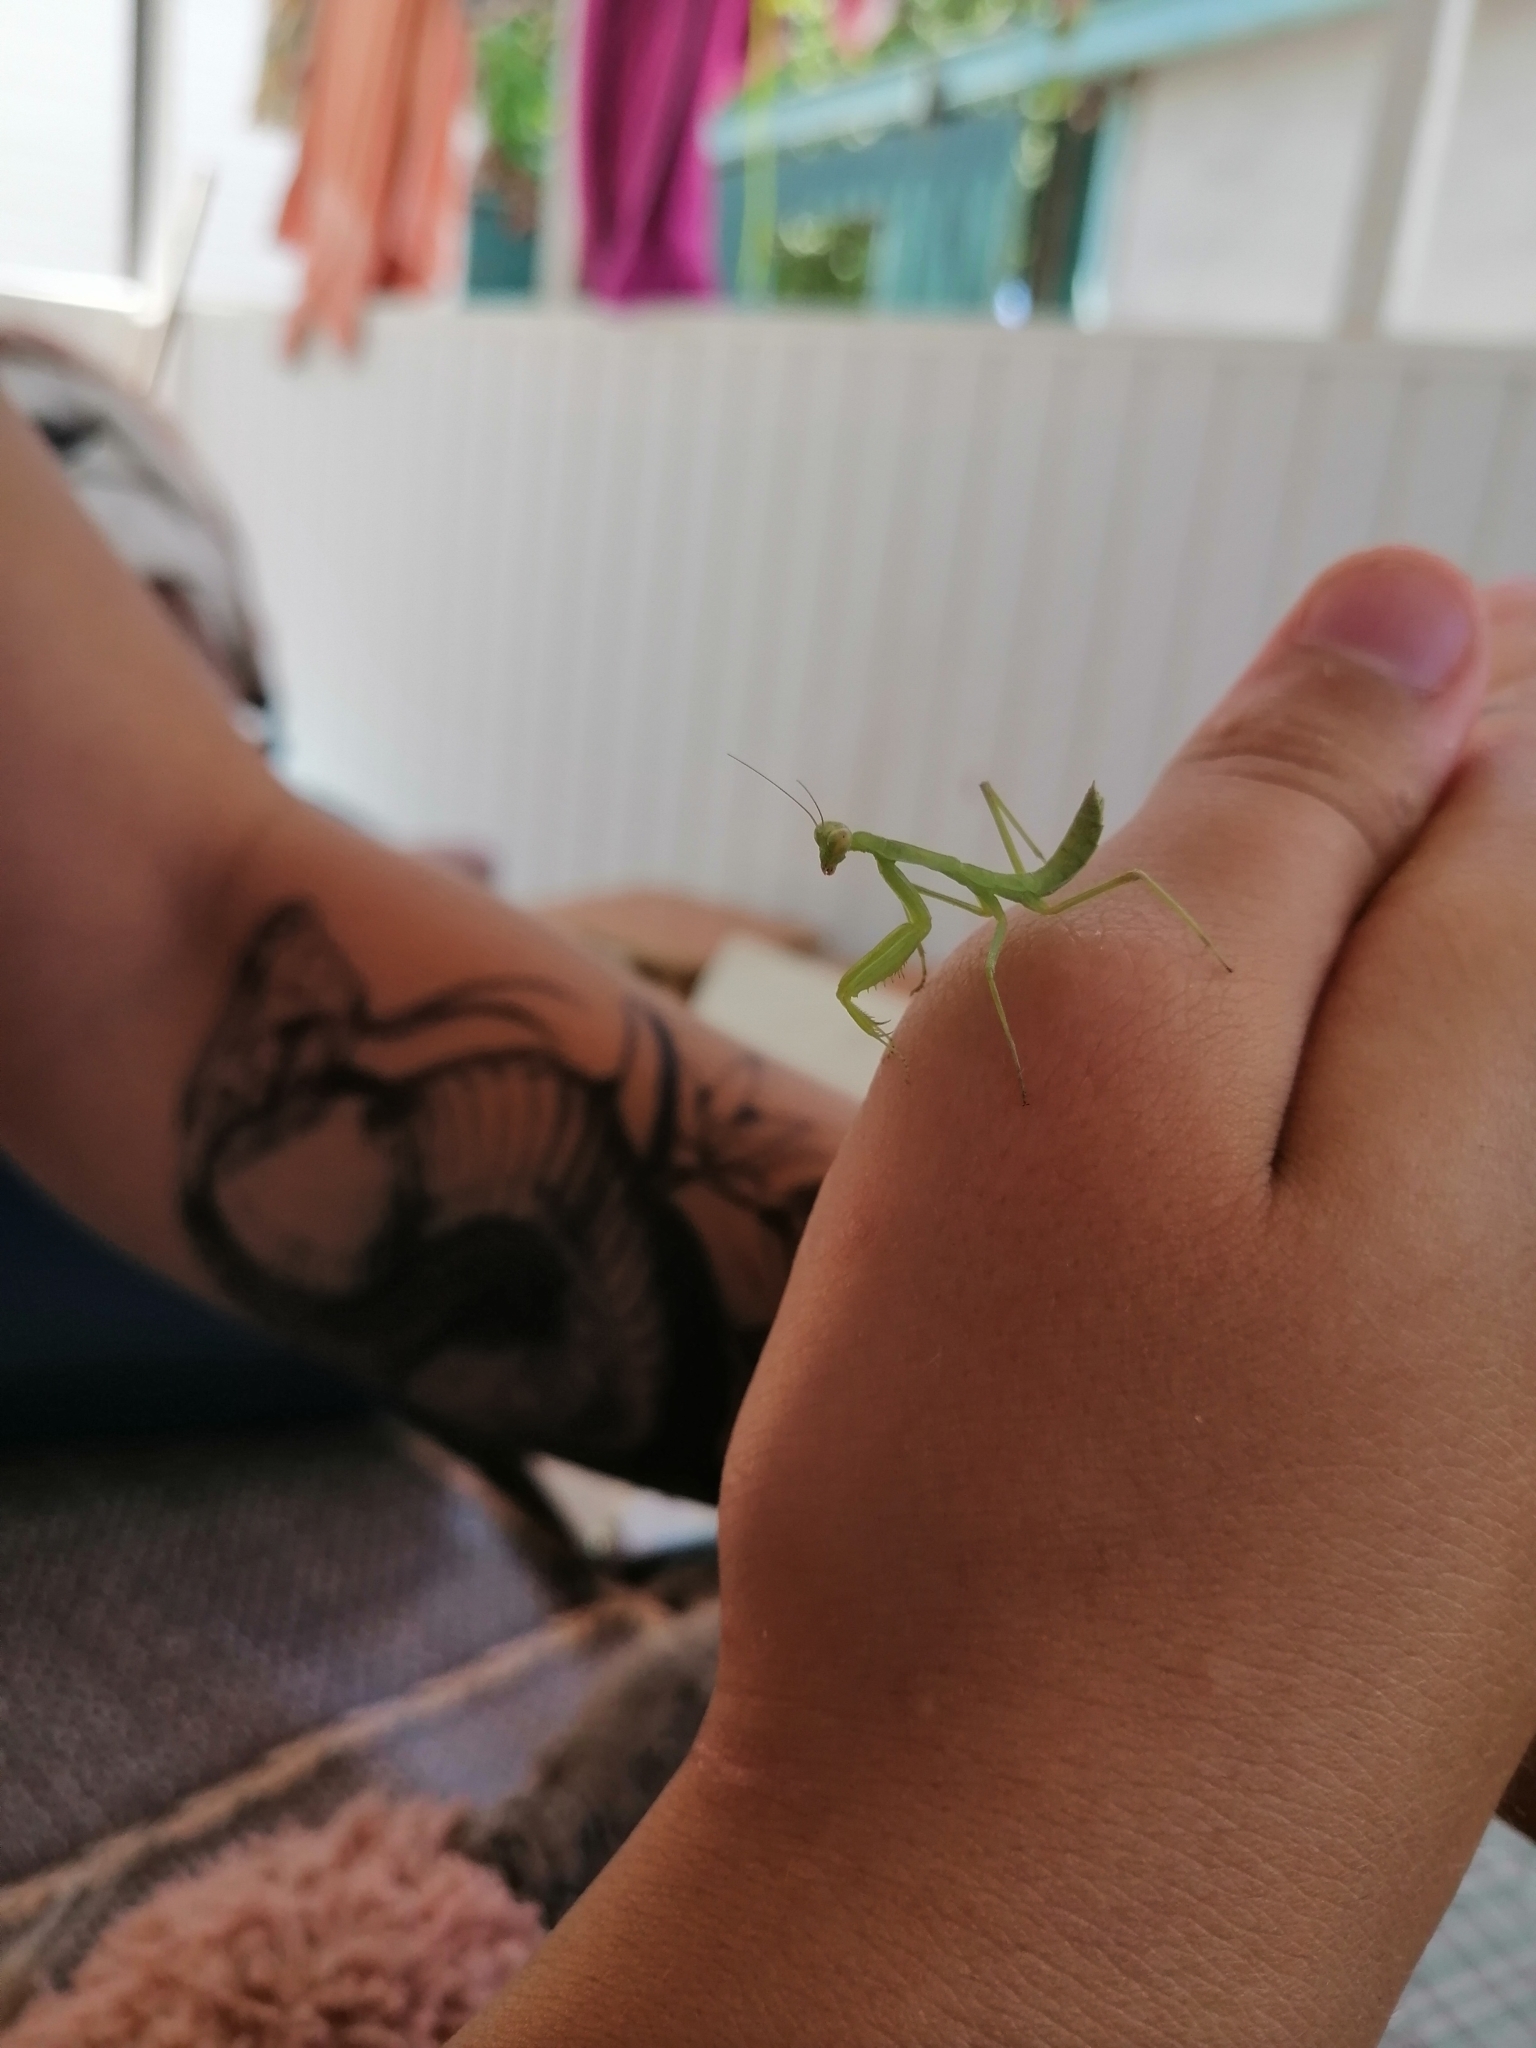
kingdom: Animalia
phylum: Arthropoda
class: Insecta
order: Mantodea
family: Mantidae
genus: Hierodula
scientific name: Hierodula transcaucasica
